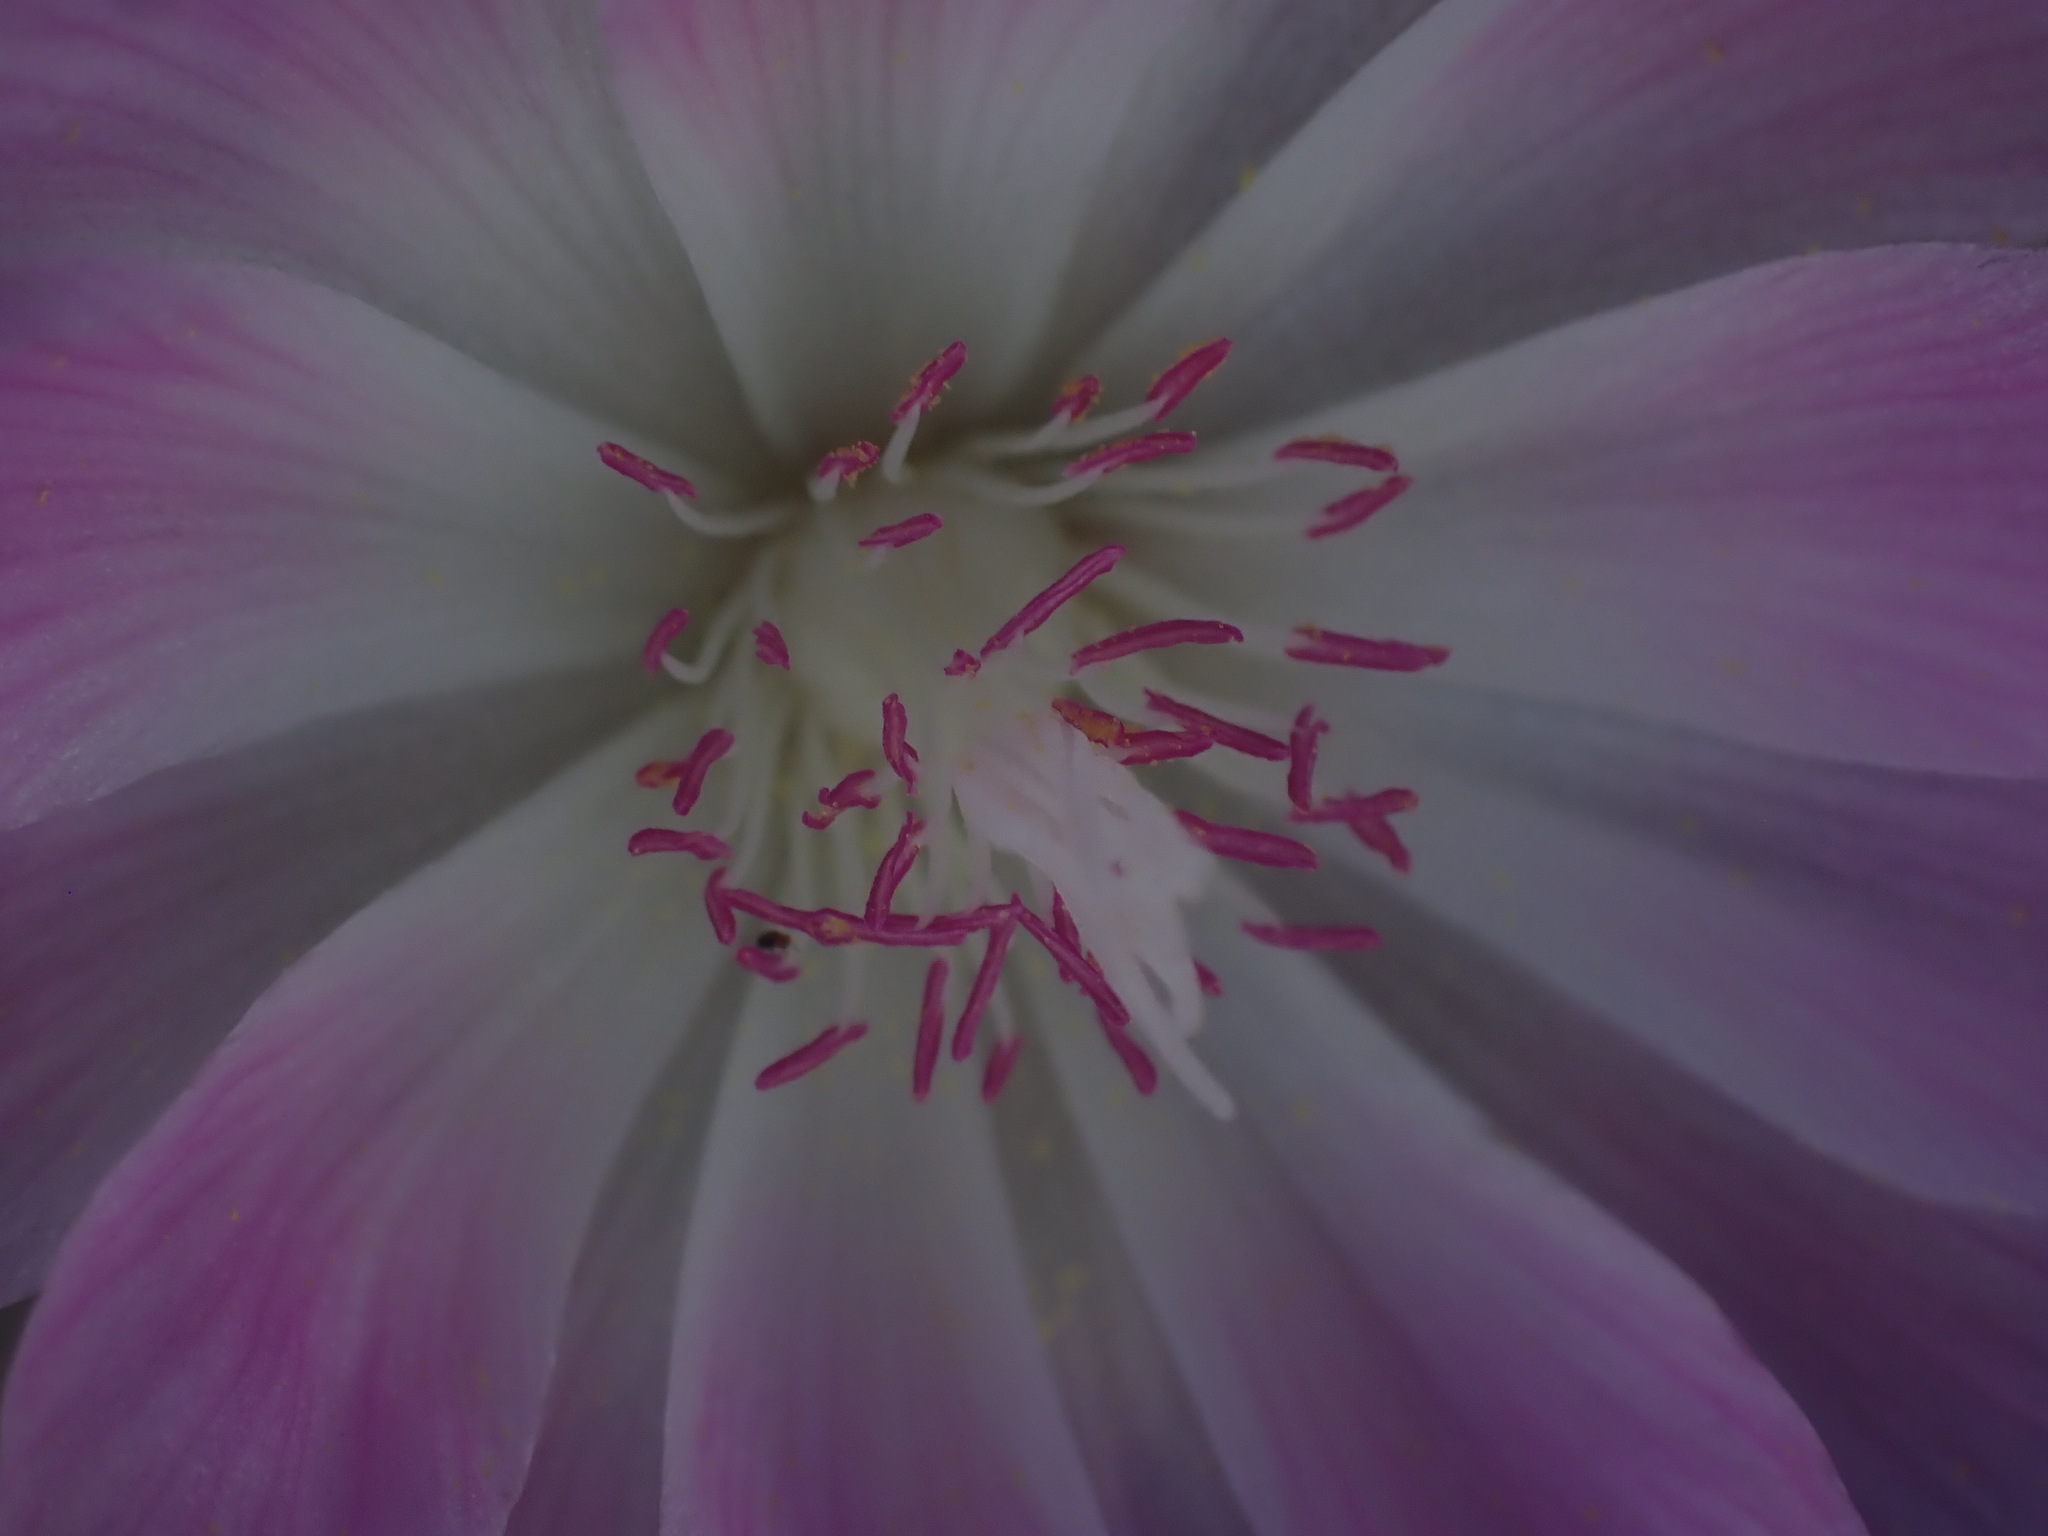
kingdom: Plantae
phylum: Tracheophyta
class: Magnoliopsida
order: Caryophyllales
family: Montiaceae
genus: Lewisia
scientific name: Lewisia rediviva
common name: Bitter-root
